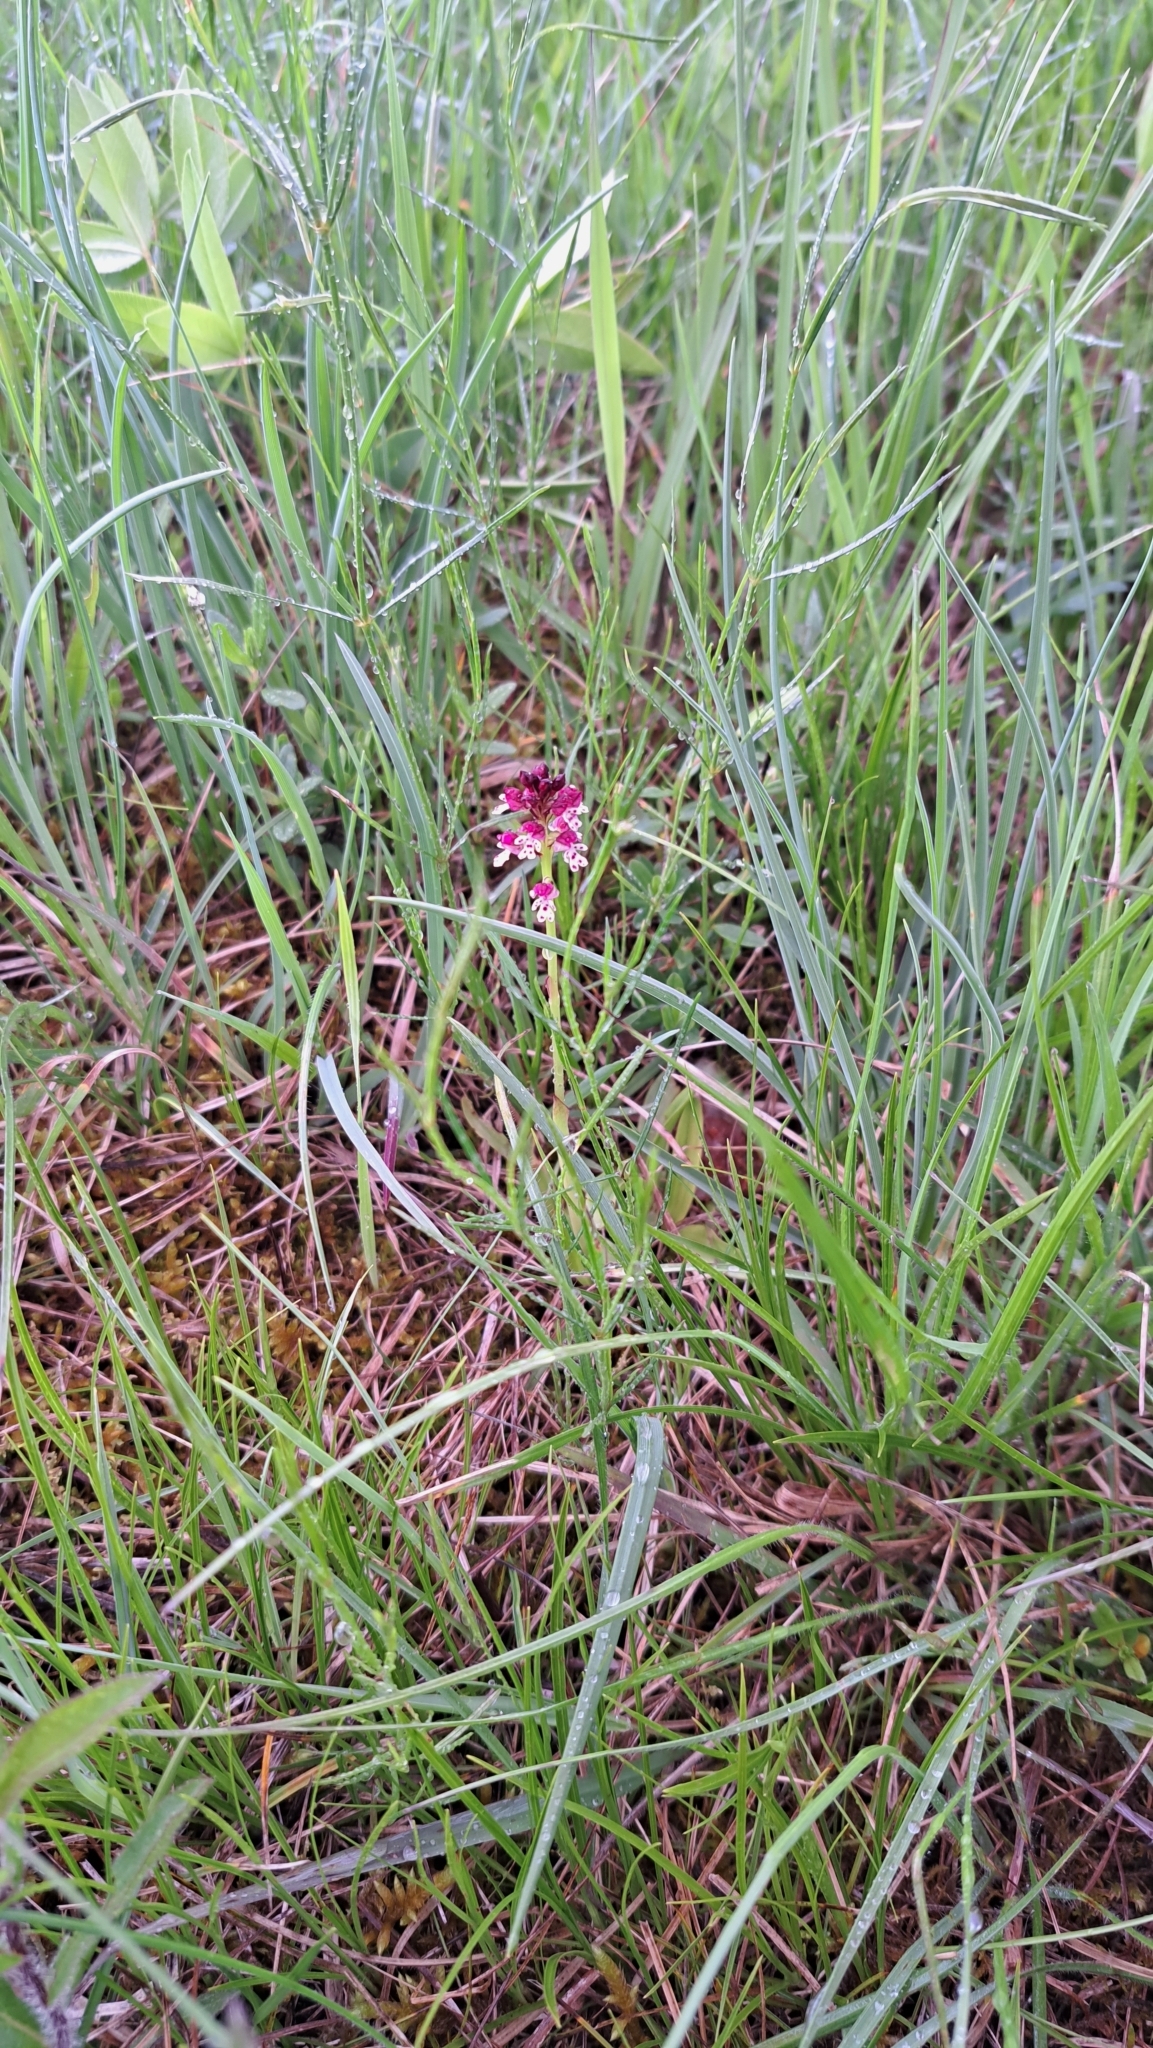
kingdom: Plantae
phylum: Tracheophyta
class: Liliopsida
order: Asparagales
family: Orchidaceae
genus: Neotinea
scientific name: Neotinea ustulata
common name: Burnt orchid
